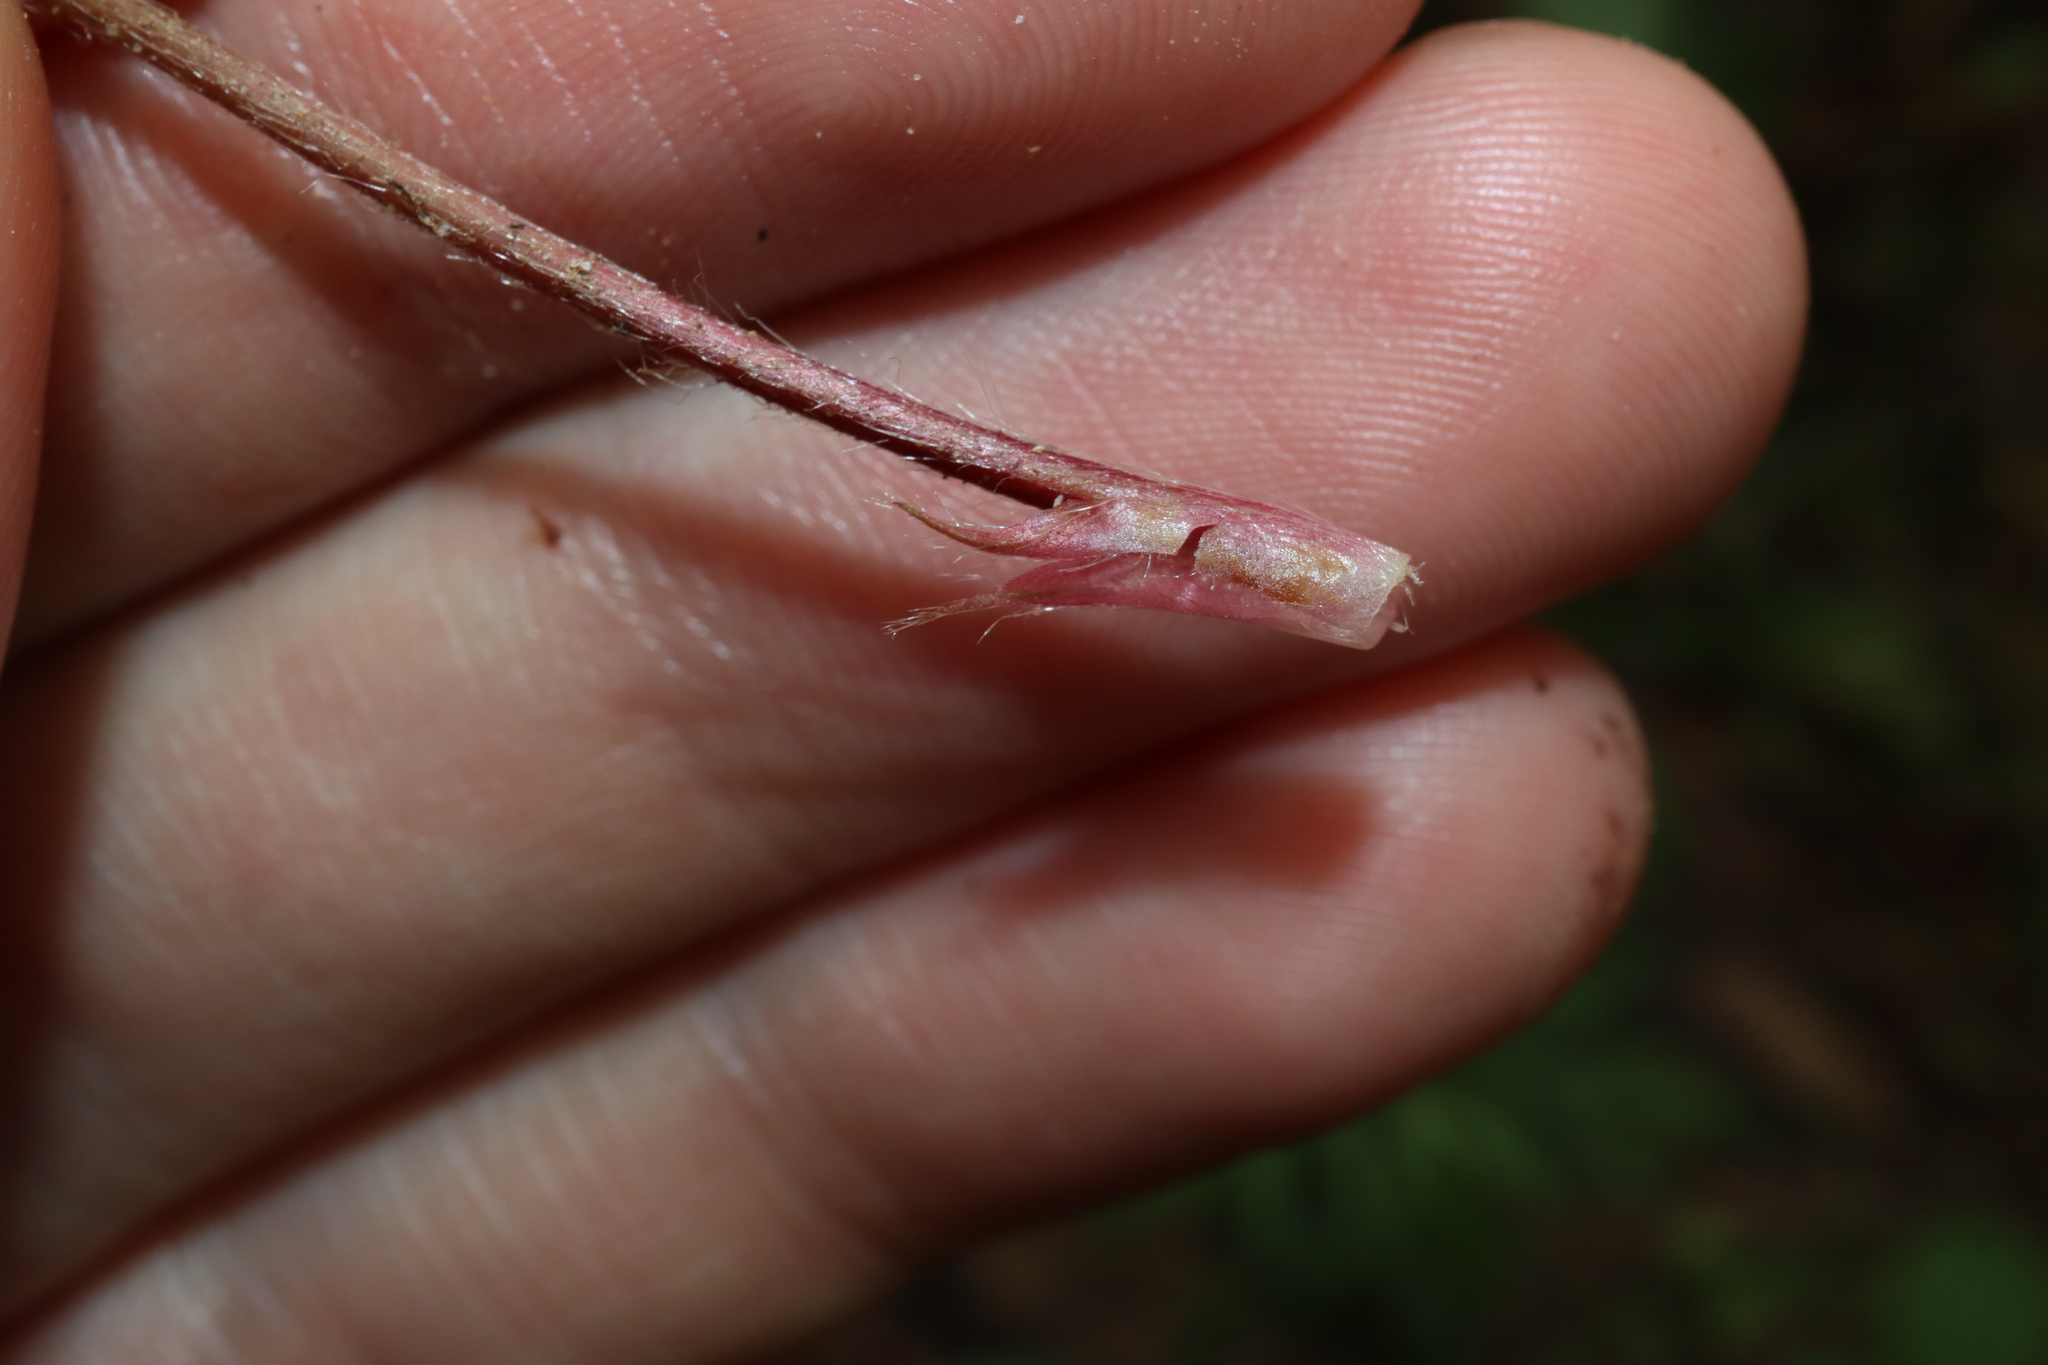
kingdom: Plantae
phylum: Tracheophyta
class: Magnoliopsida
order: Rosales
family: Rosaceae
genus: Potentilla
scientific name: Potentilla indica
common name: Yellow-flowered strawberry
